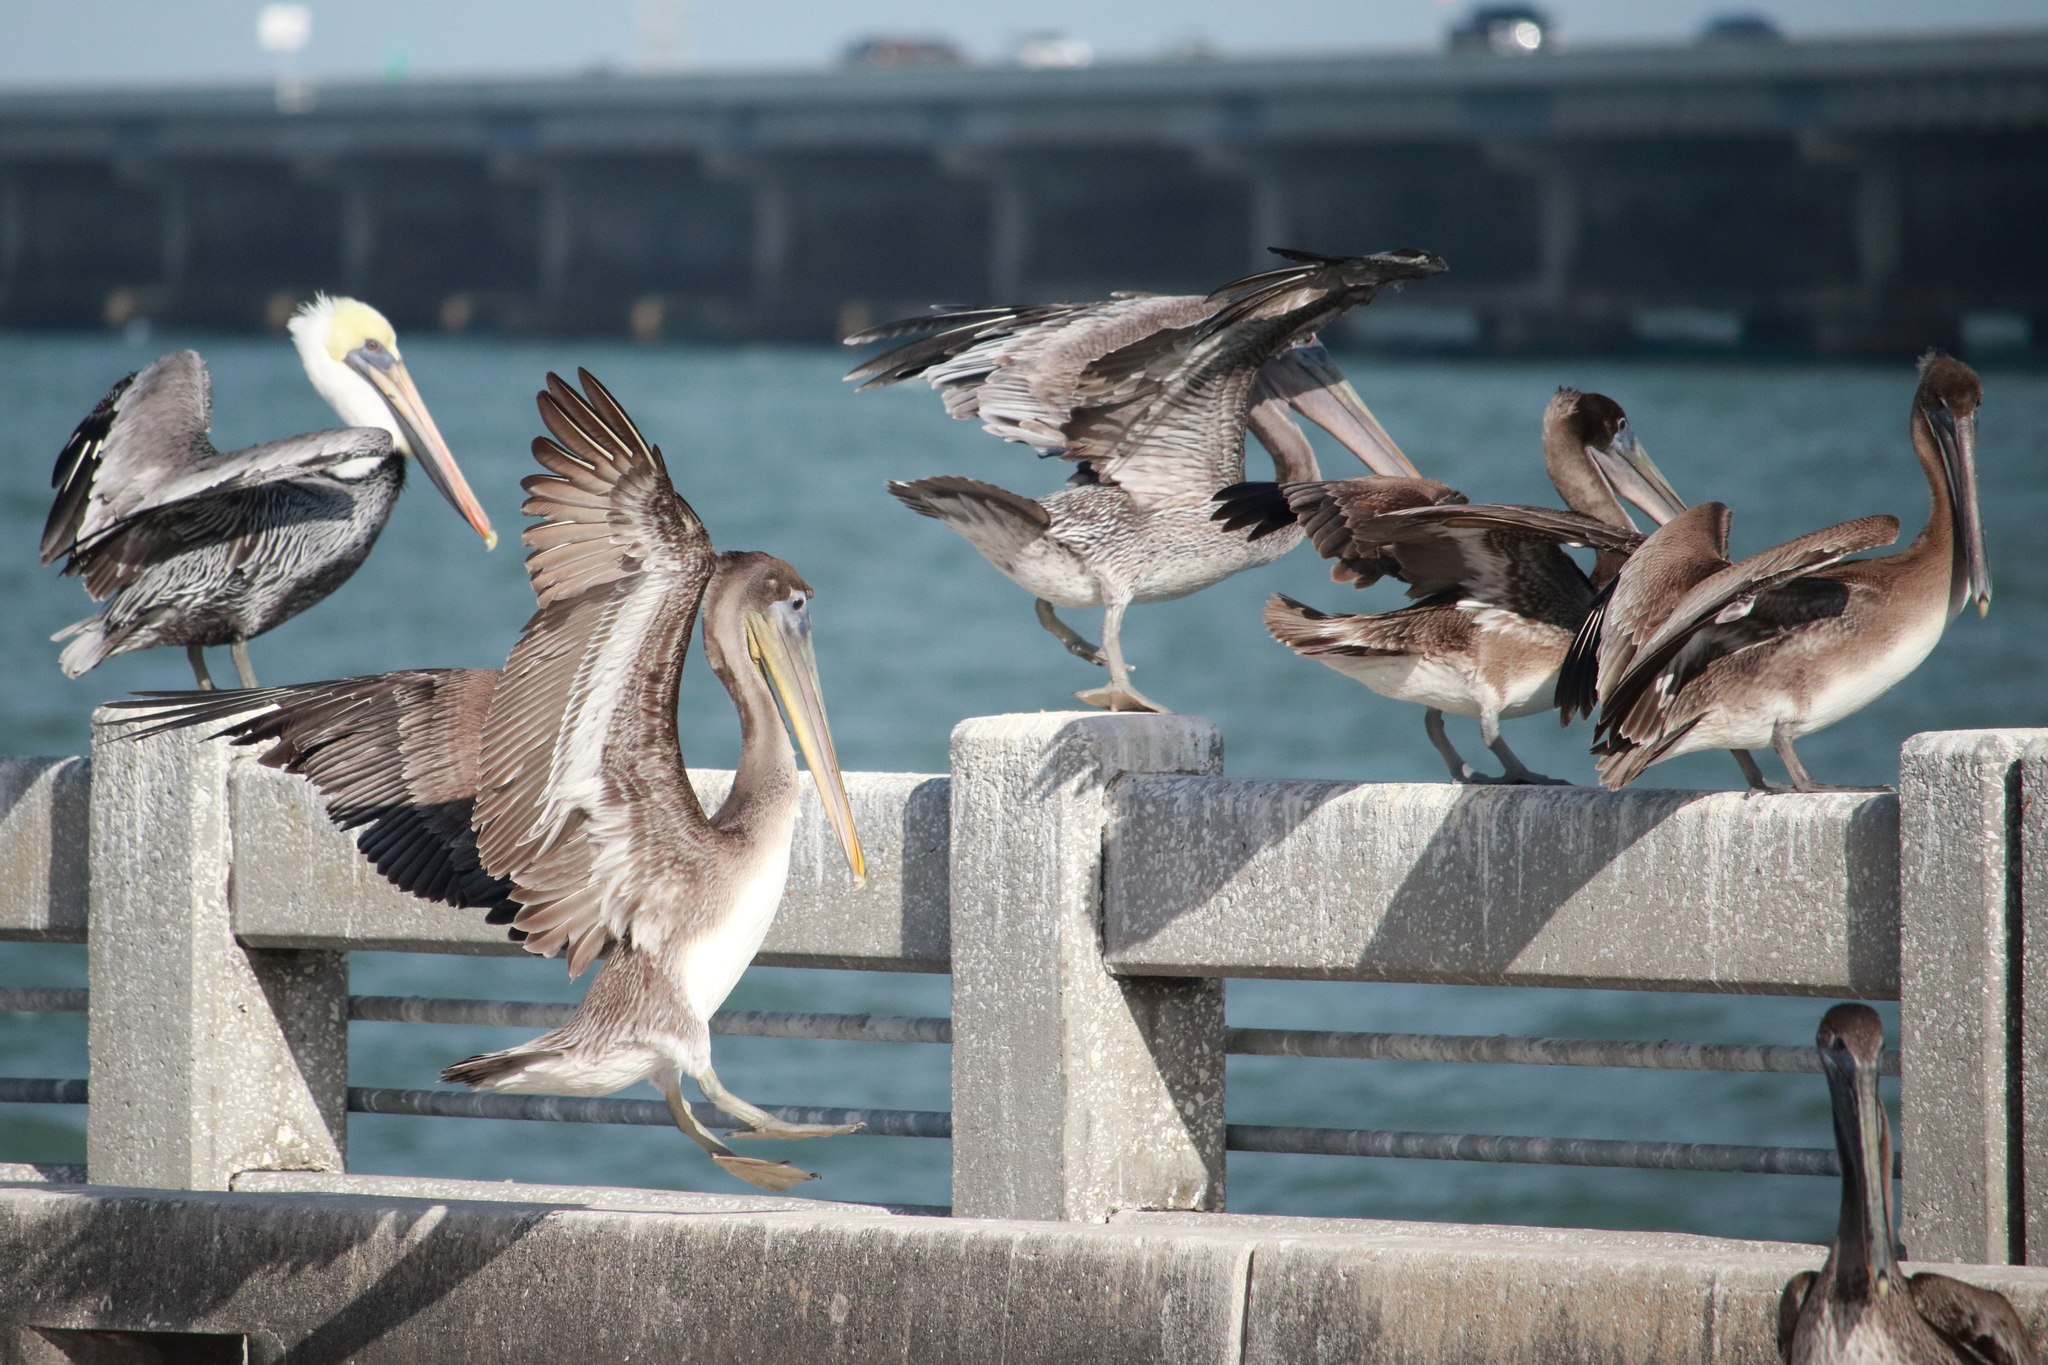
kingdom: Animalia
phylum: Chordata
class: Aves
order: Pelecaniformes
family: Pelecanidae
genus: Pelecanus
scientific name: Pelecanus occidentalis
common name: Brown pelican
